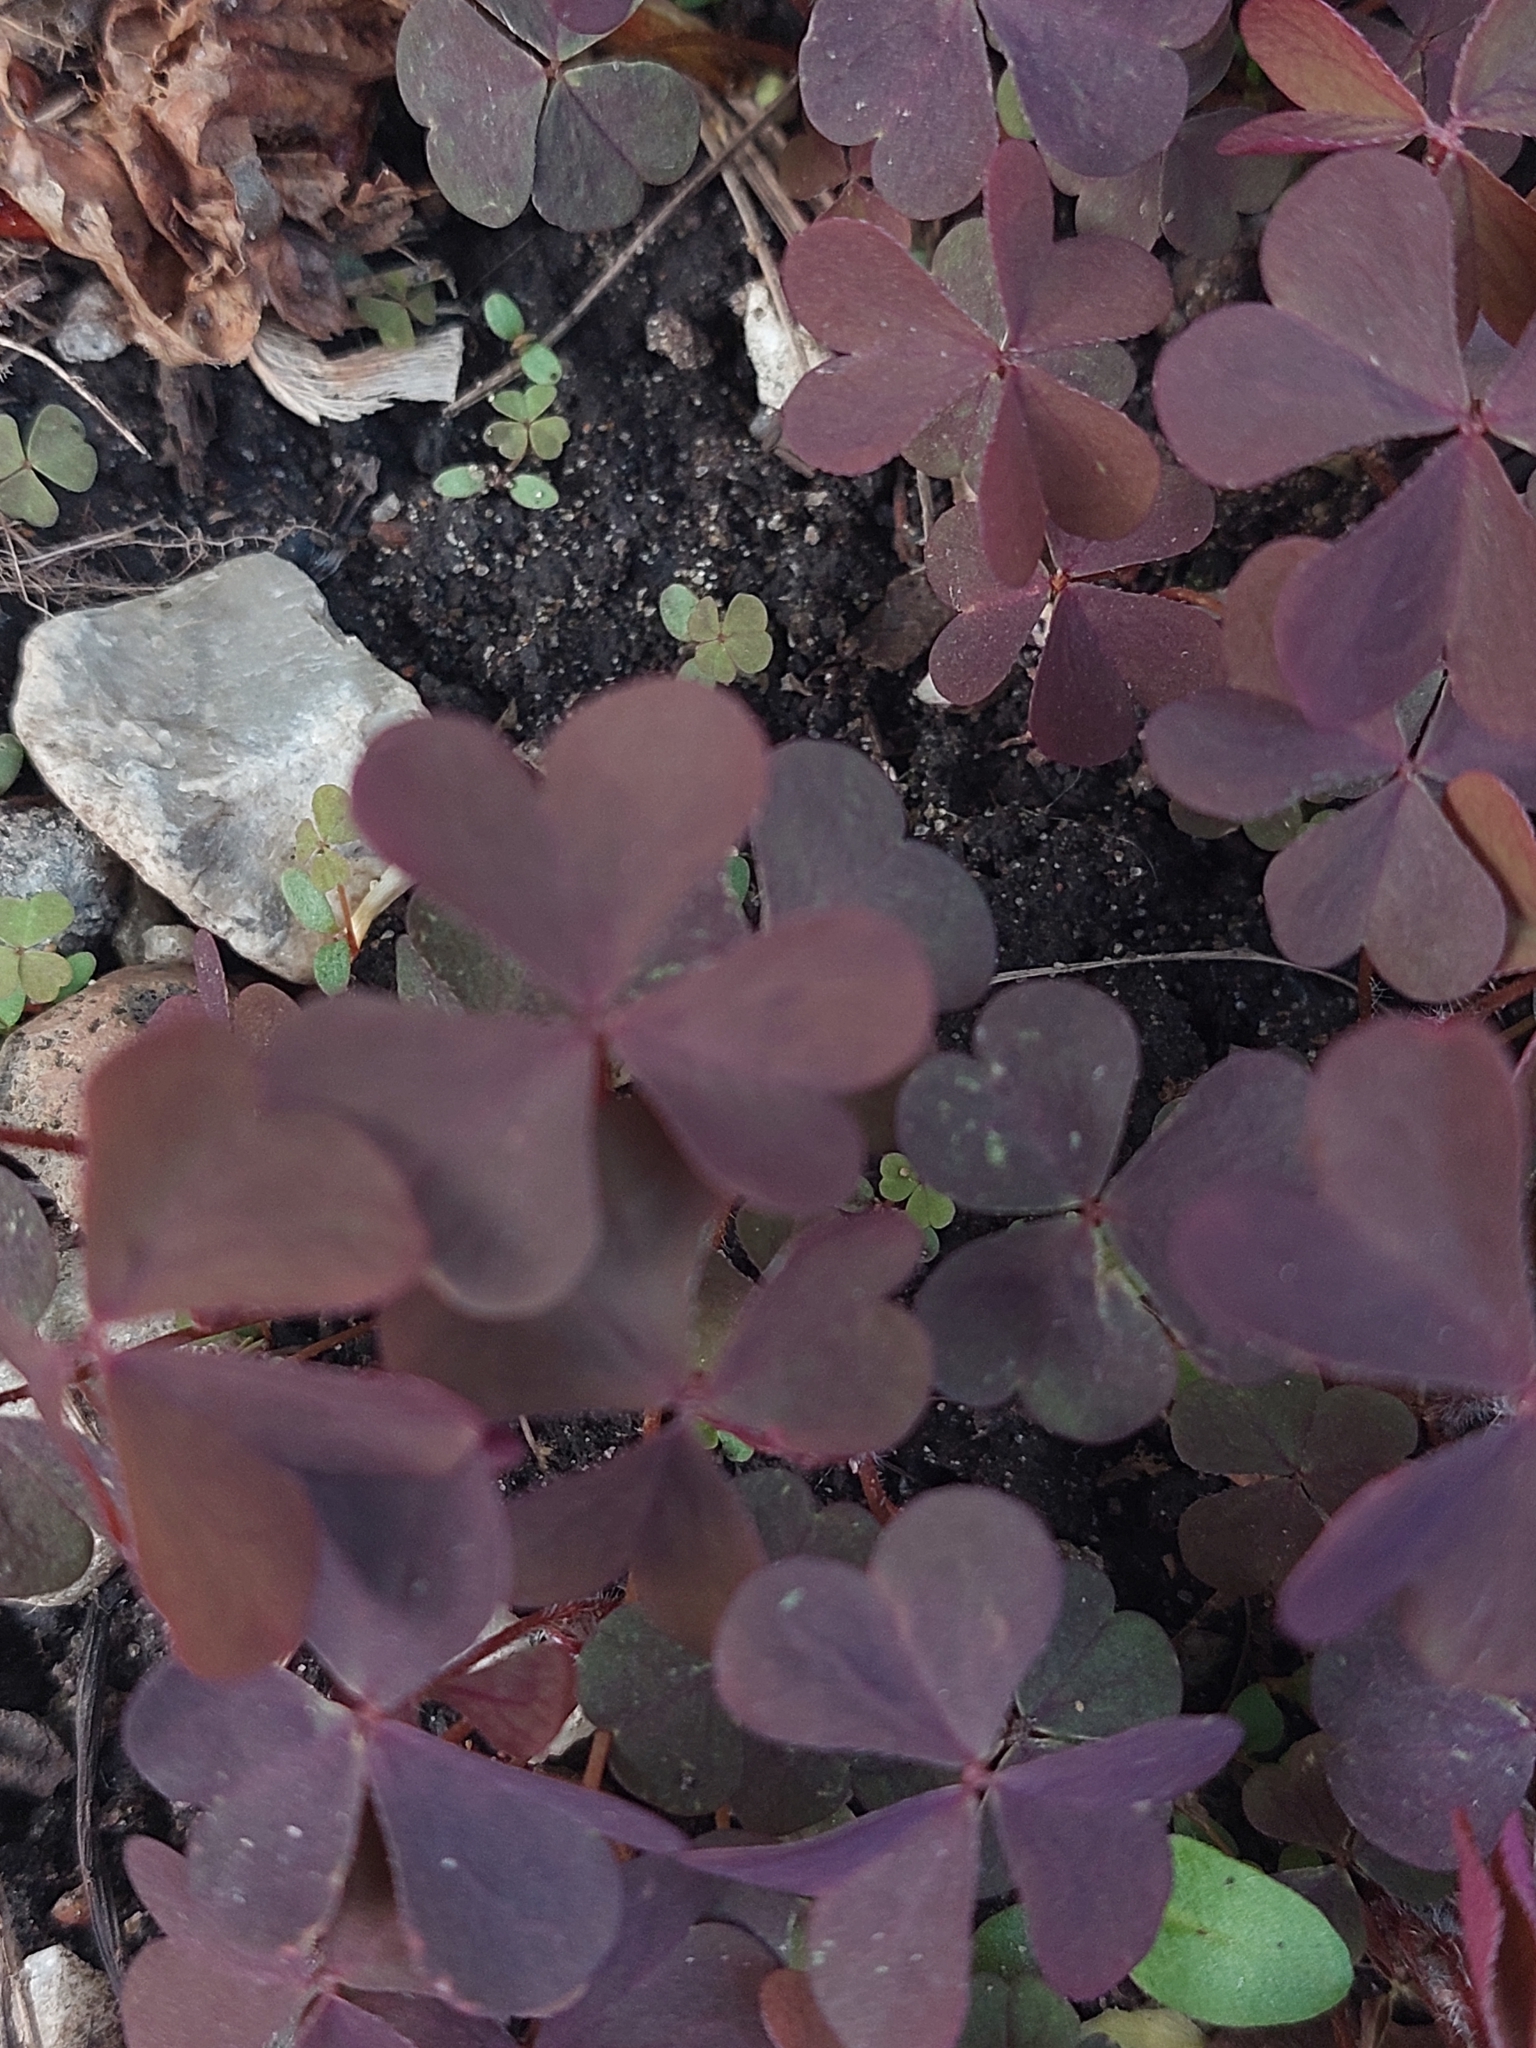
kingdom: Plantae
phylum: Tracheophyta
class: Magnoliopsida
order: Oxalidales
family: Oxalidaceae
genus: Oxalis
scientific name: Oxalis stricta
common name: Upright yellow-sorrel
